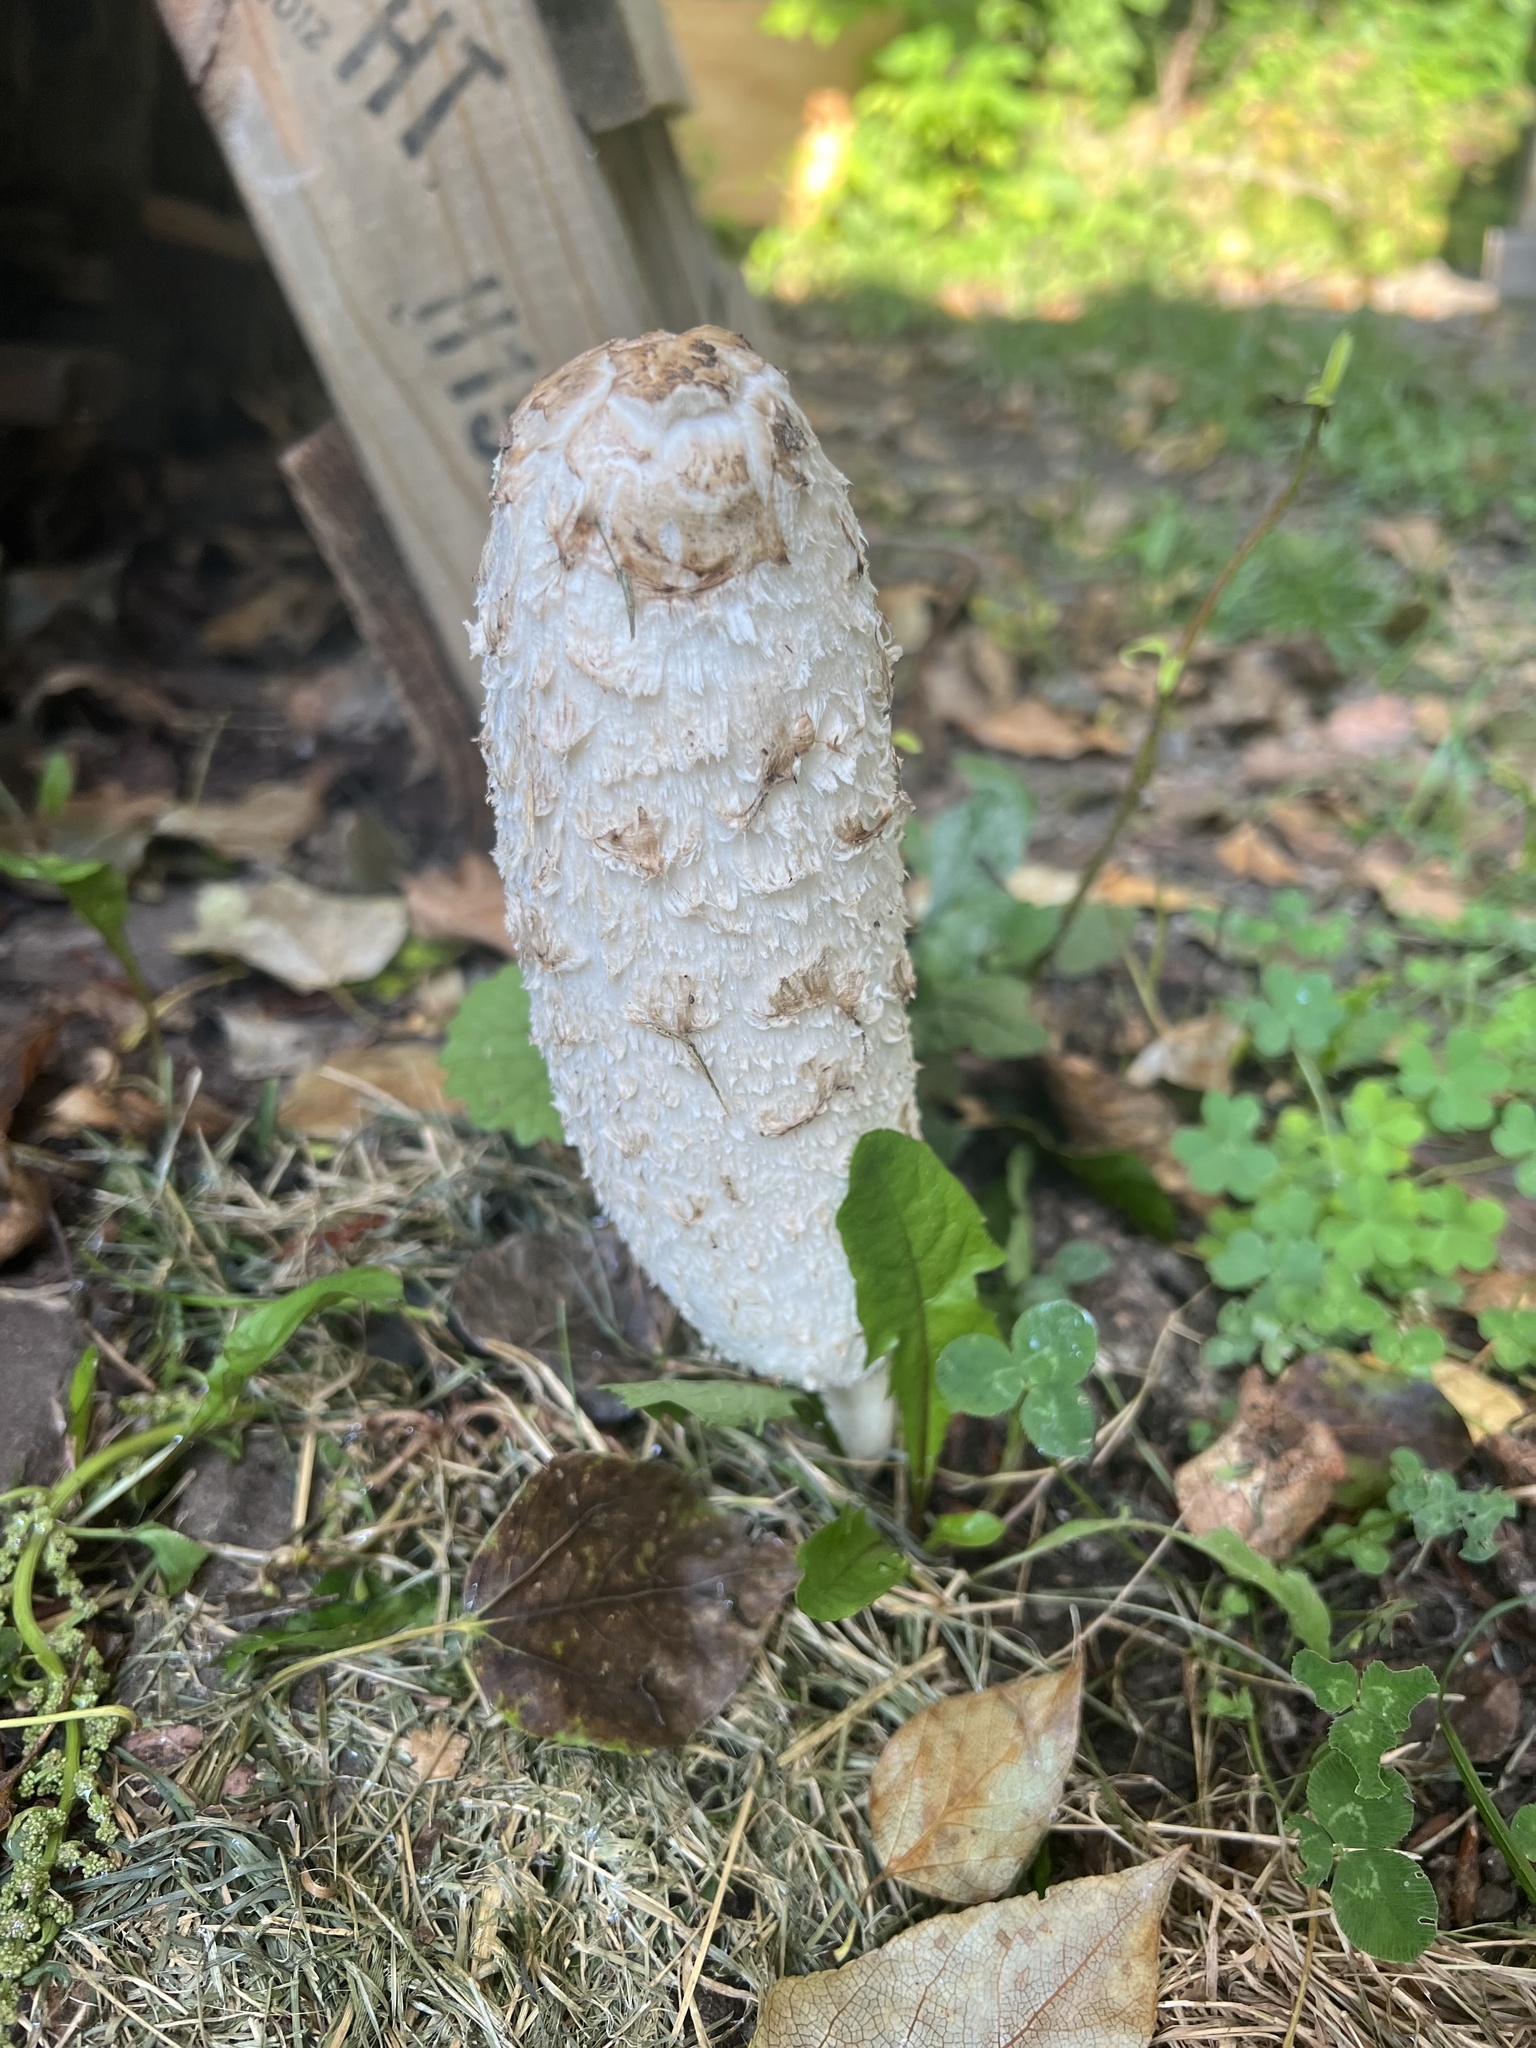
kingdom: Fungi
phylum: Basidiomycota
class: Agaricomycetes
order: Agaricales
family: Agaricaceae
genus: Coprinus
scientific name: Coprinus comatus
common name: Lawyer's wig
